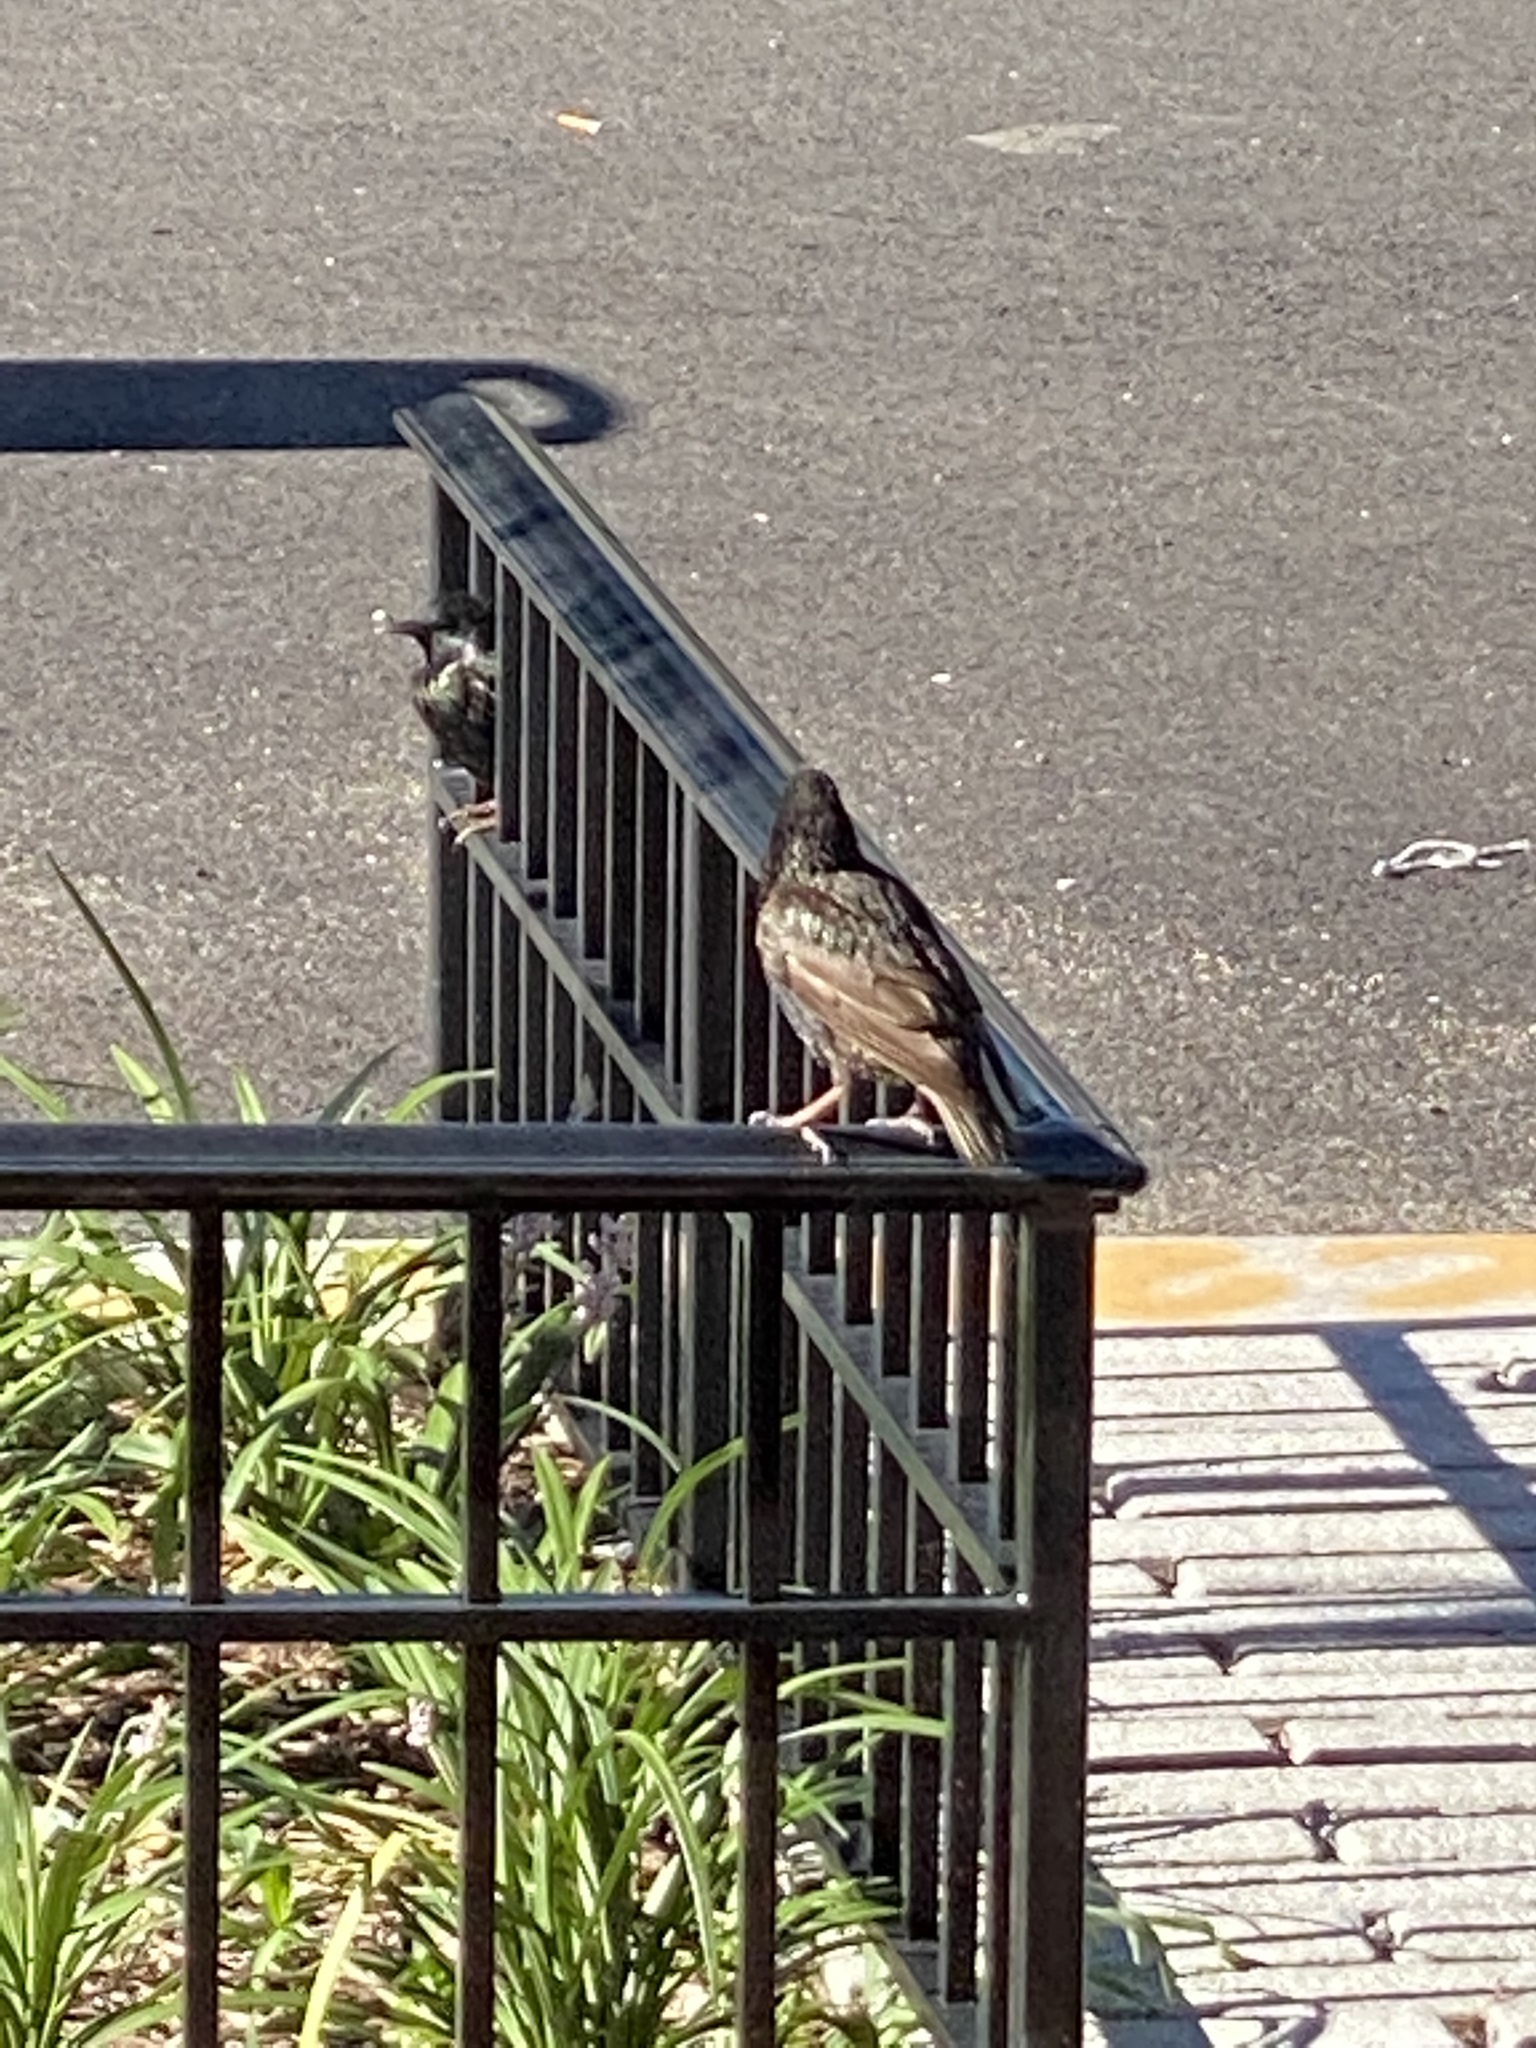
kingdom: Animalia
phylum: Chordata
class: Aves
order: Passeriformes
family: Sturnidae
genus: Sturnus
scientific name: Sturnus vulgaris
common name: Common starling
